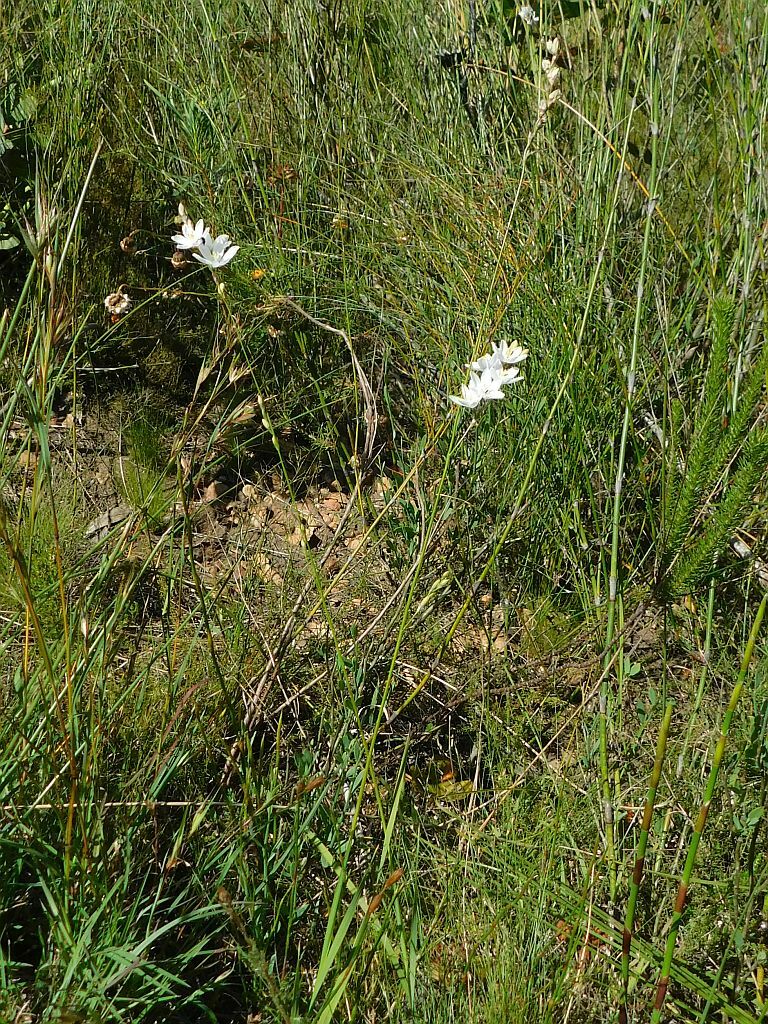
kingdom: Plantae
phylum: Tracheophyta
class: Liliopsida
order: Asparagales
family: Iridaceae
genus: Ixia
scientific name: Ixia orientalis
